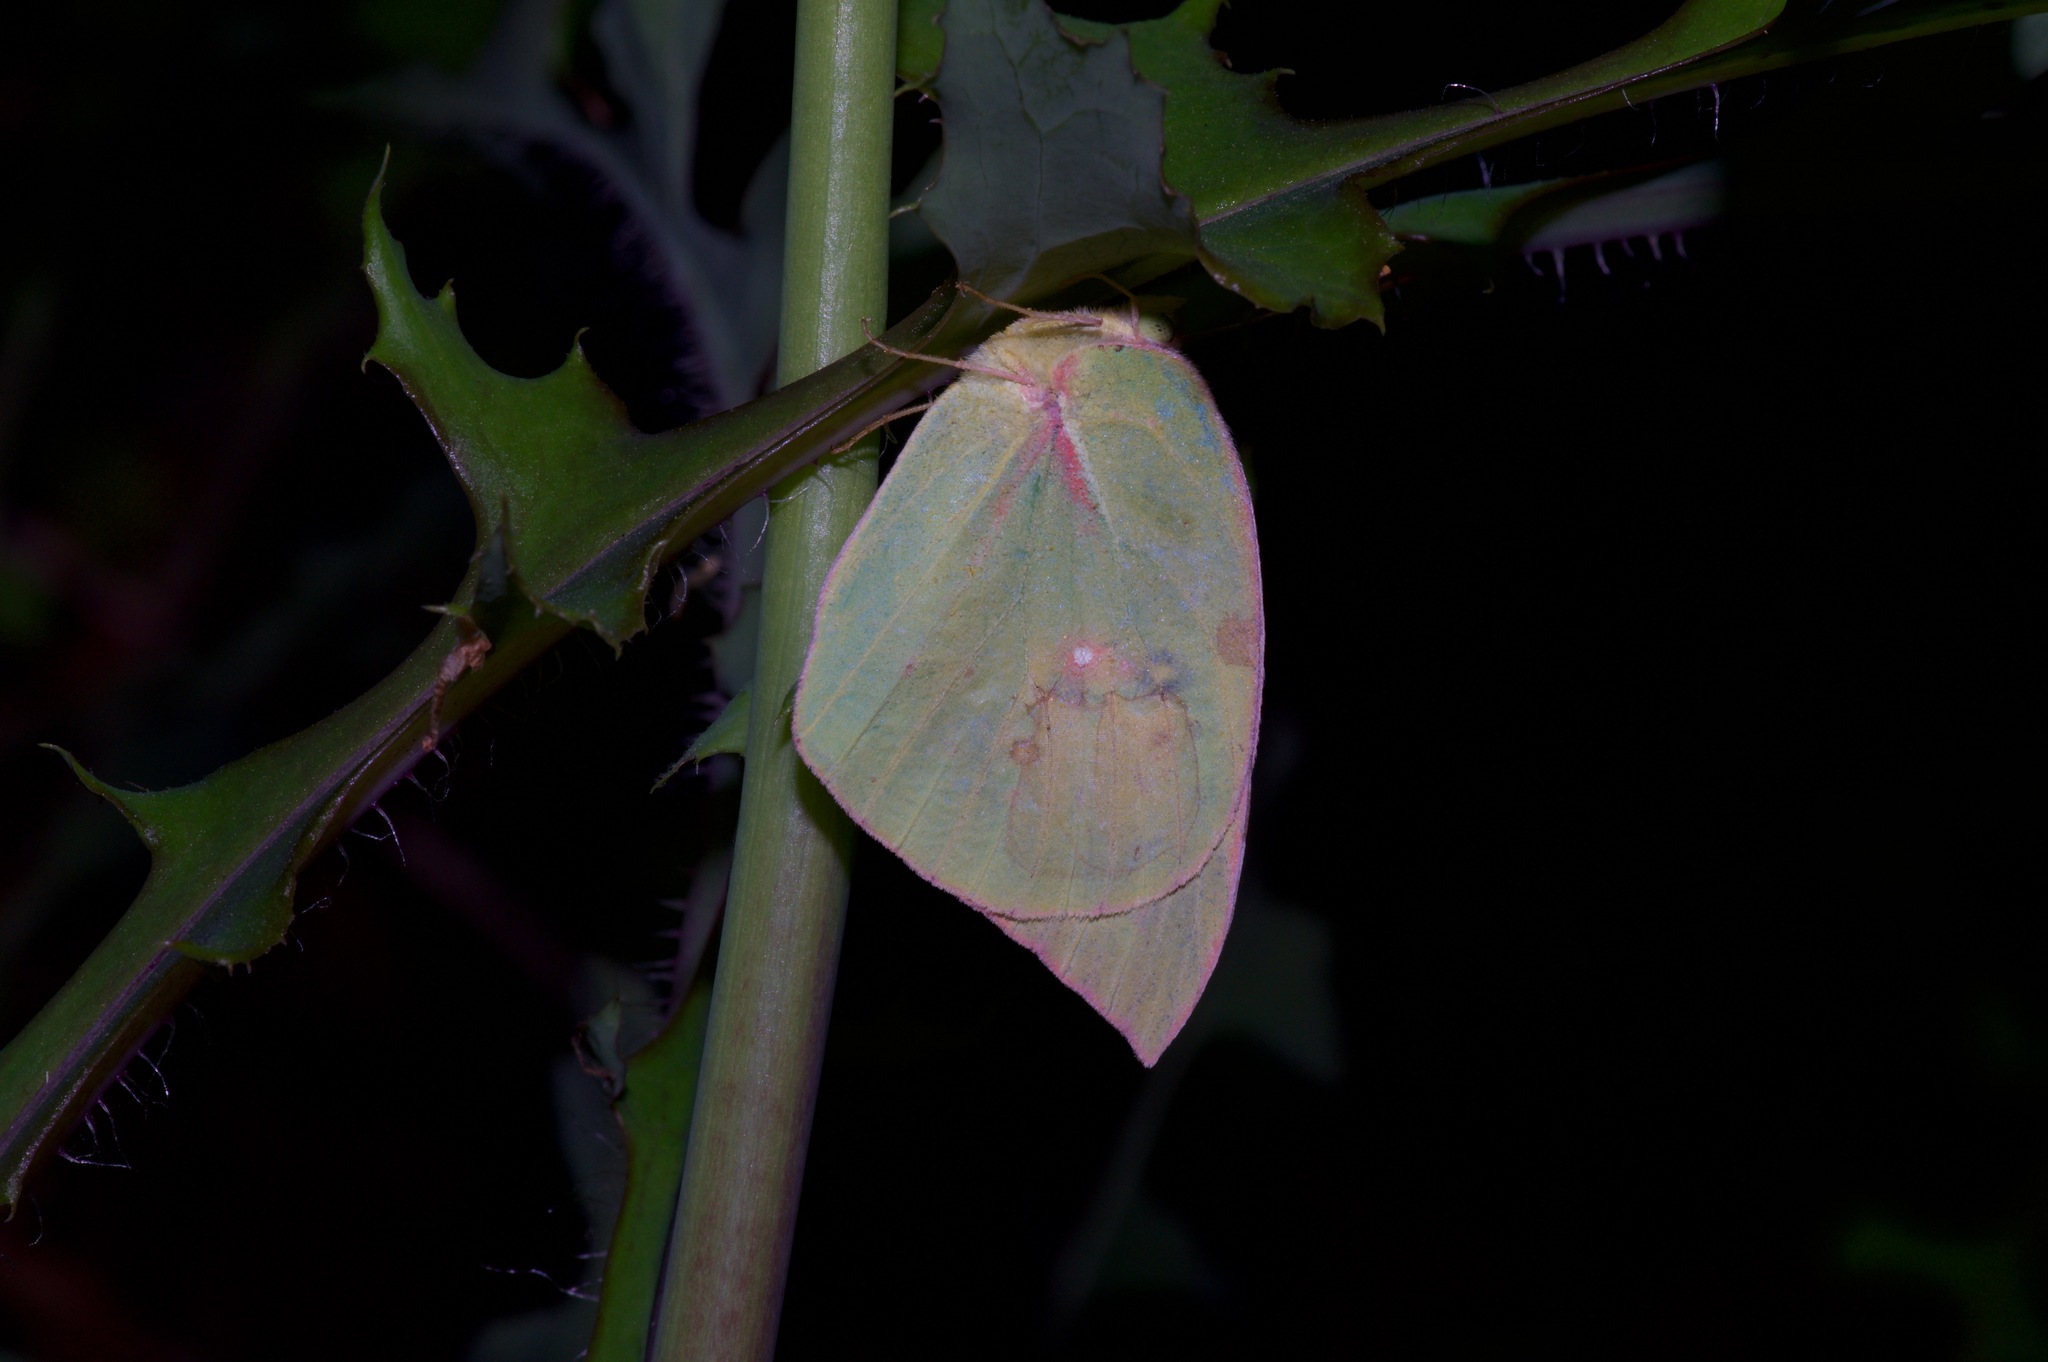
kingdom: Animalia
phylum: Arthropoda
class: Insecta
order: Lepidoptera
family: Pieridae
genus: Zerene
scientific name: Zerene cesonia
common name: Southern dogface
